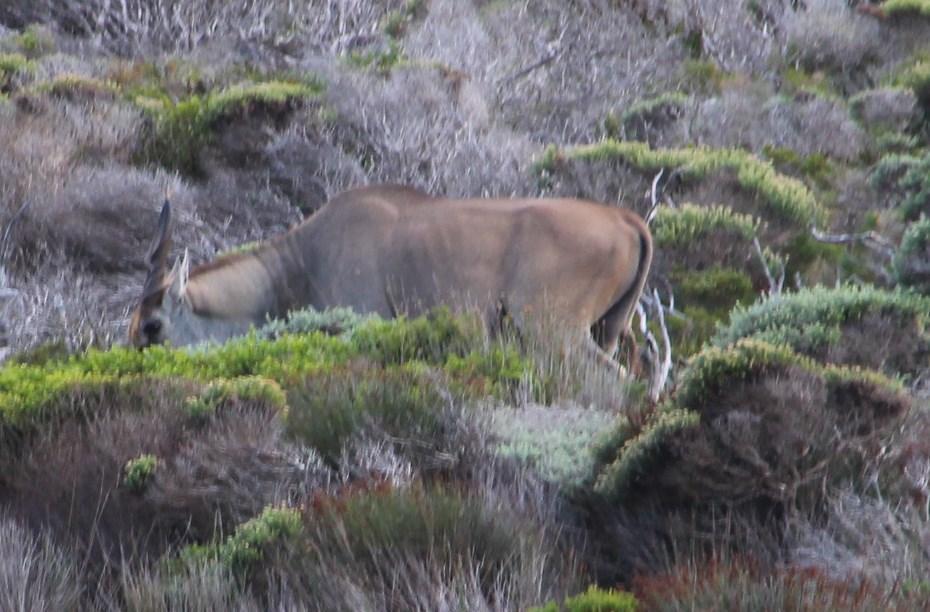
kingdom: Animalia
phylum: Chordata
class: Mammalia
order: Artiodactyla
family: Bovidae
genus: Taurotragus
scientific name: Taurotragus oryx
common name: Common eland
